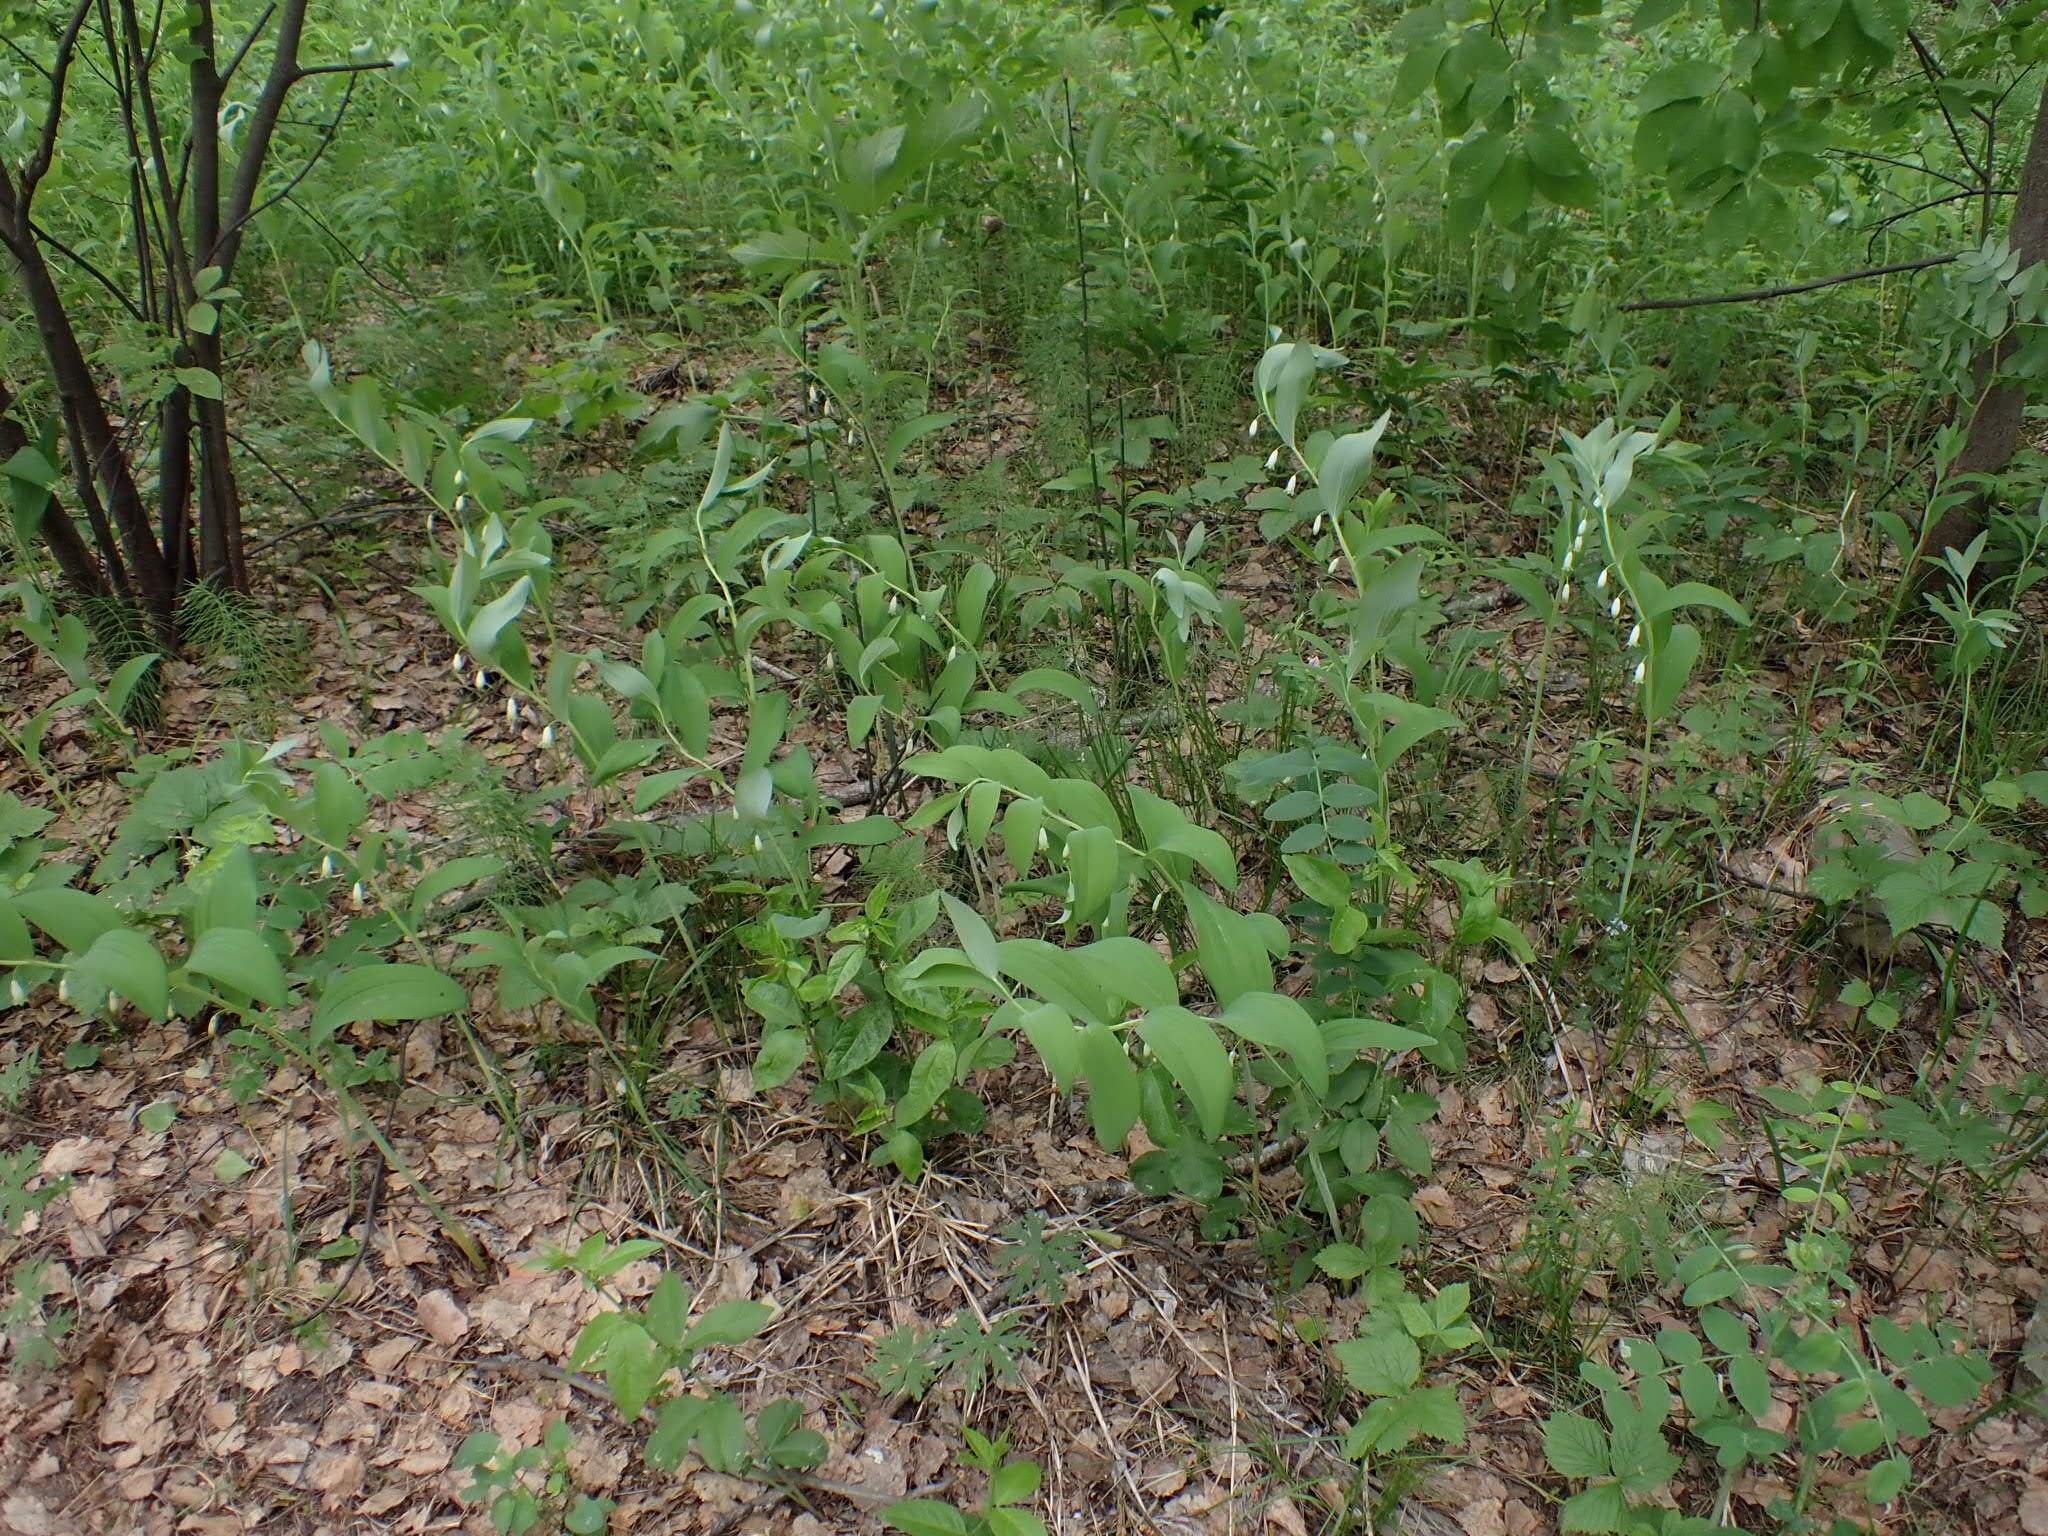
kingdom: Plantae
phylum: Tracheophyta
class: Liliopsida
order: Asparagales
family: Asparagaceae
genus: Polygonatum
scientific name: Polygonatum odoratum
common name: Angular solomon's-seal
